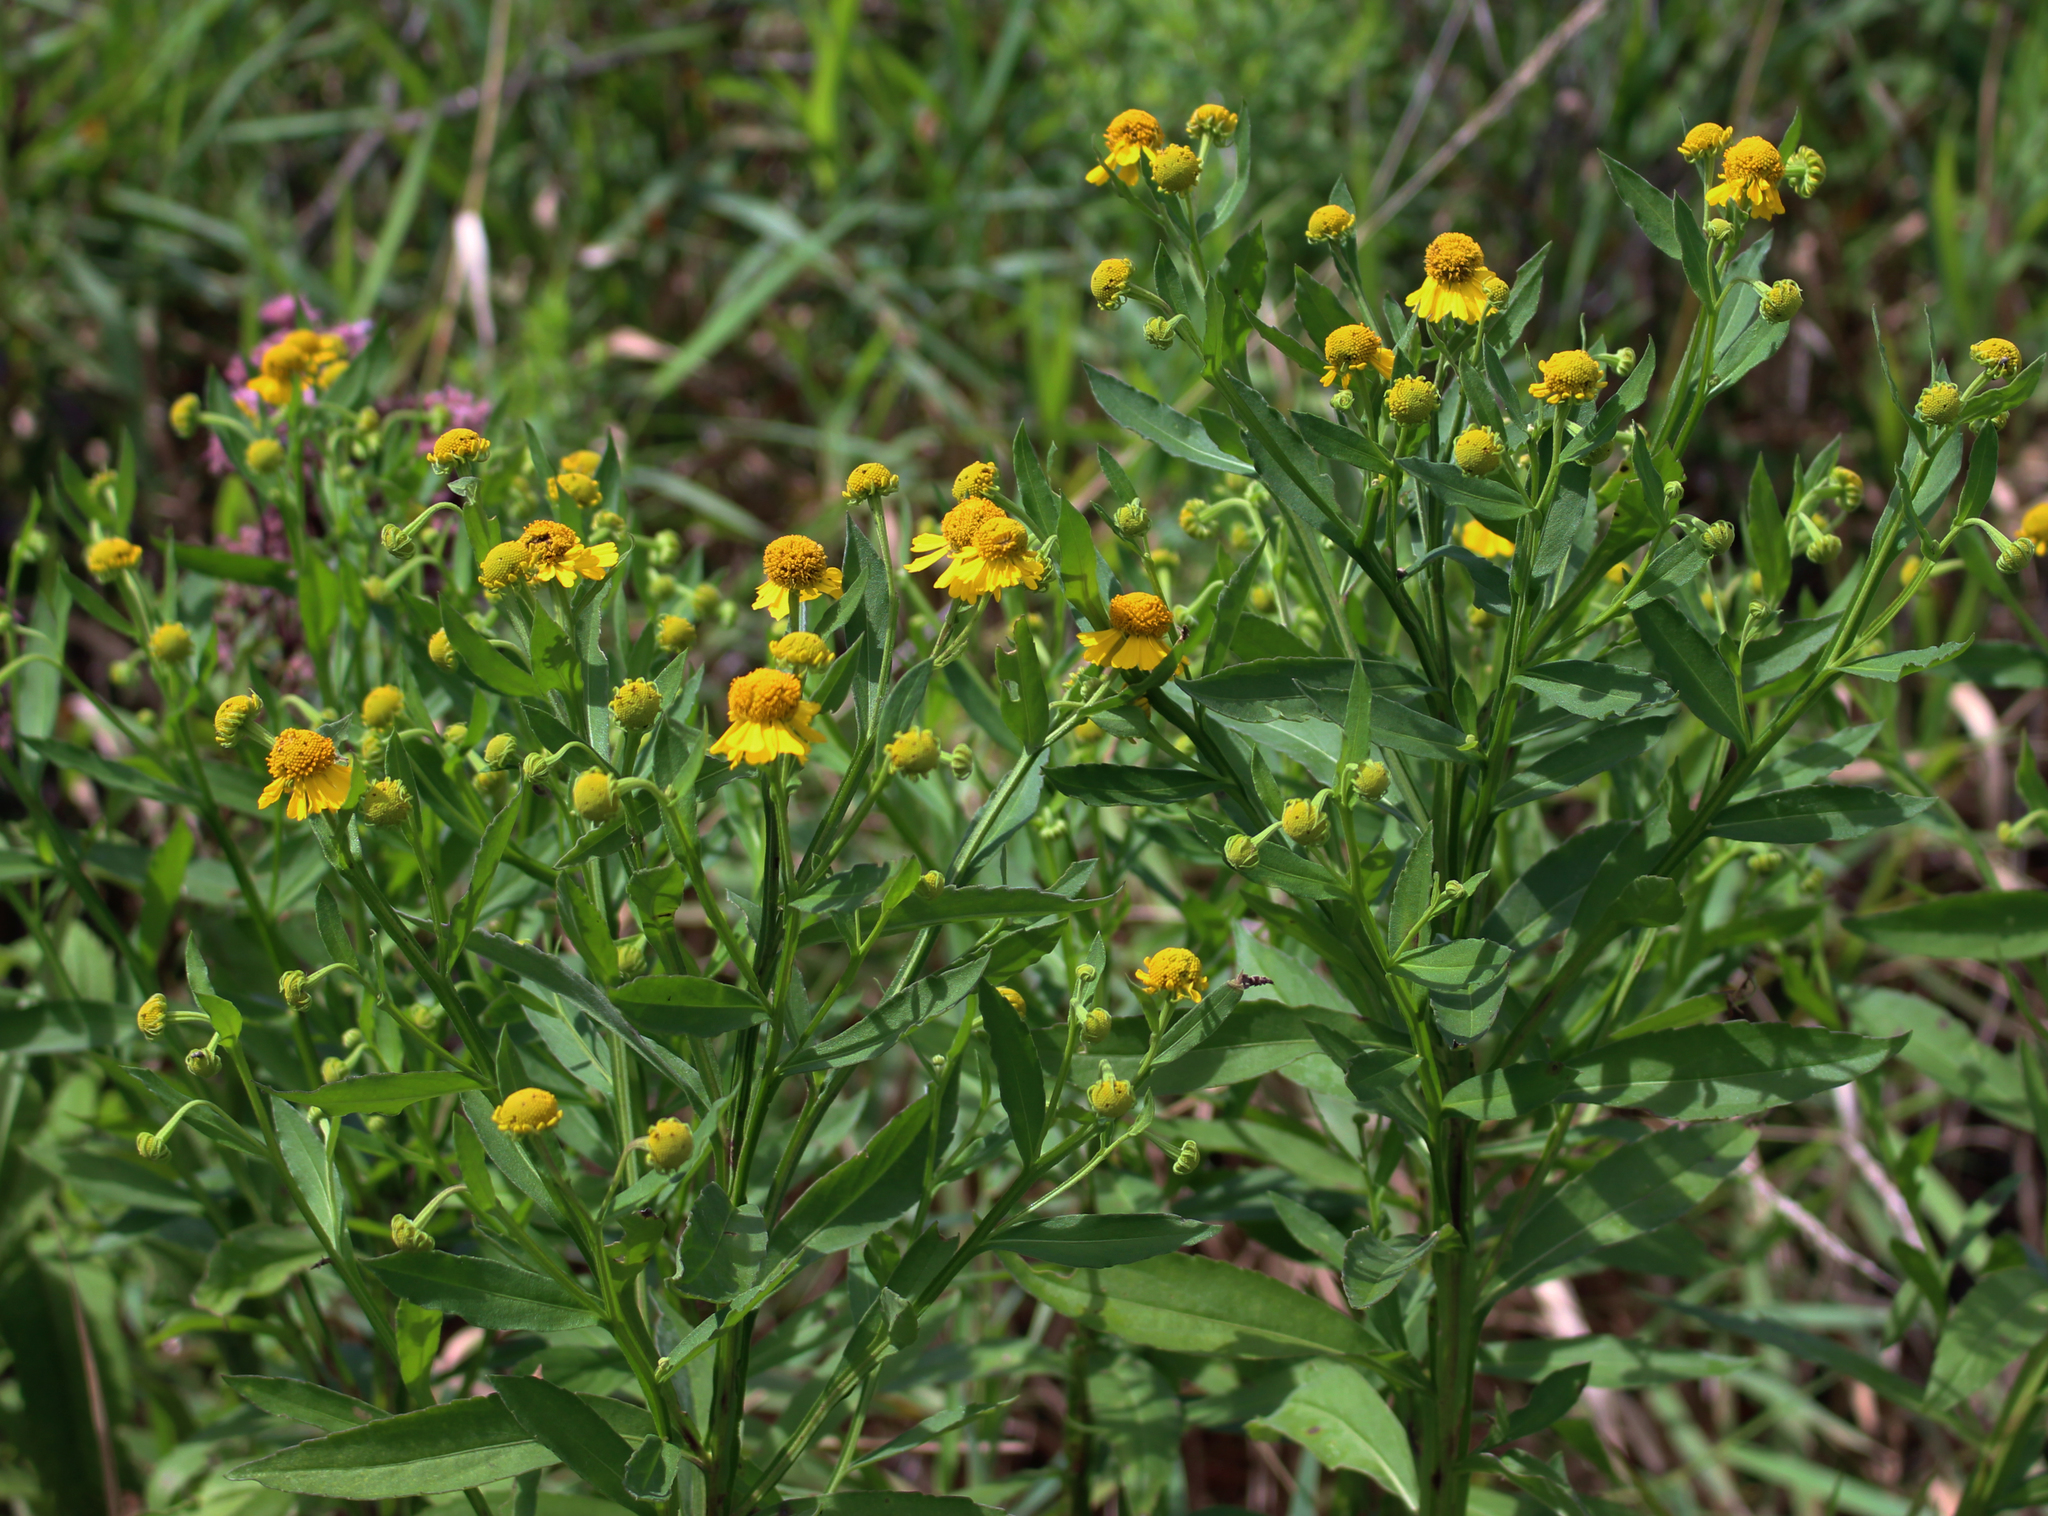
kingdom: Plantae
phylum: Tracheophyta
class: Magnoliopsida
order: Asterales
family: Asteraceae
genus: Helenium
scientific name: Helenium autumnale
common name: Sneezeweed
